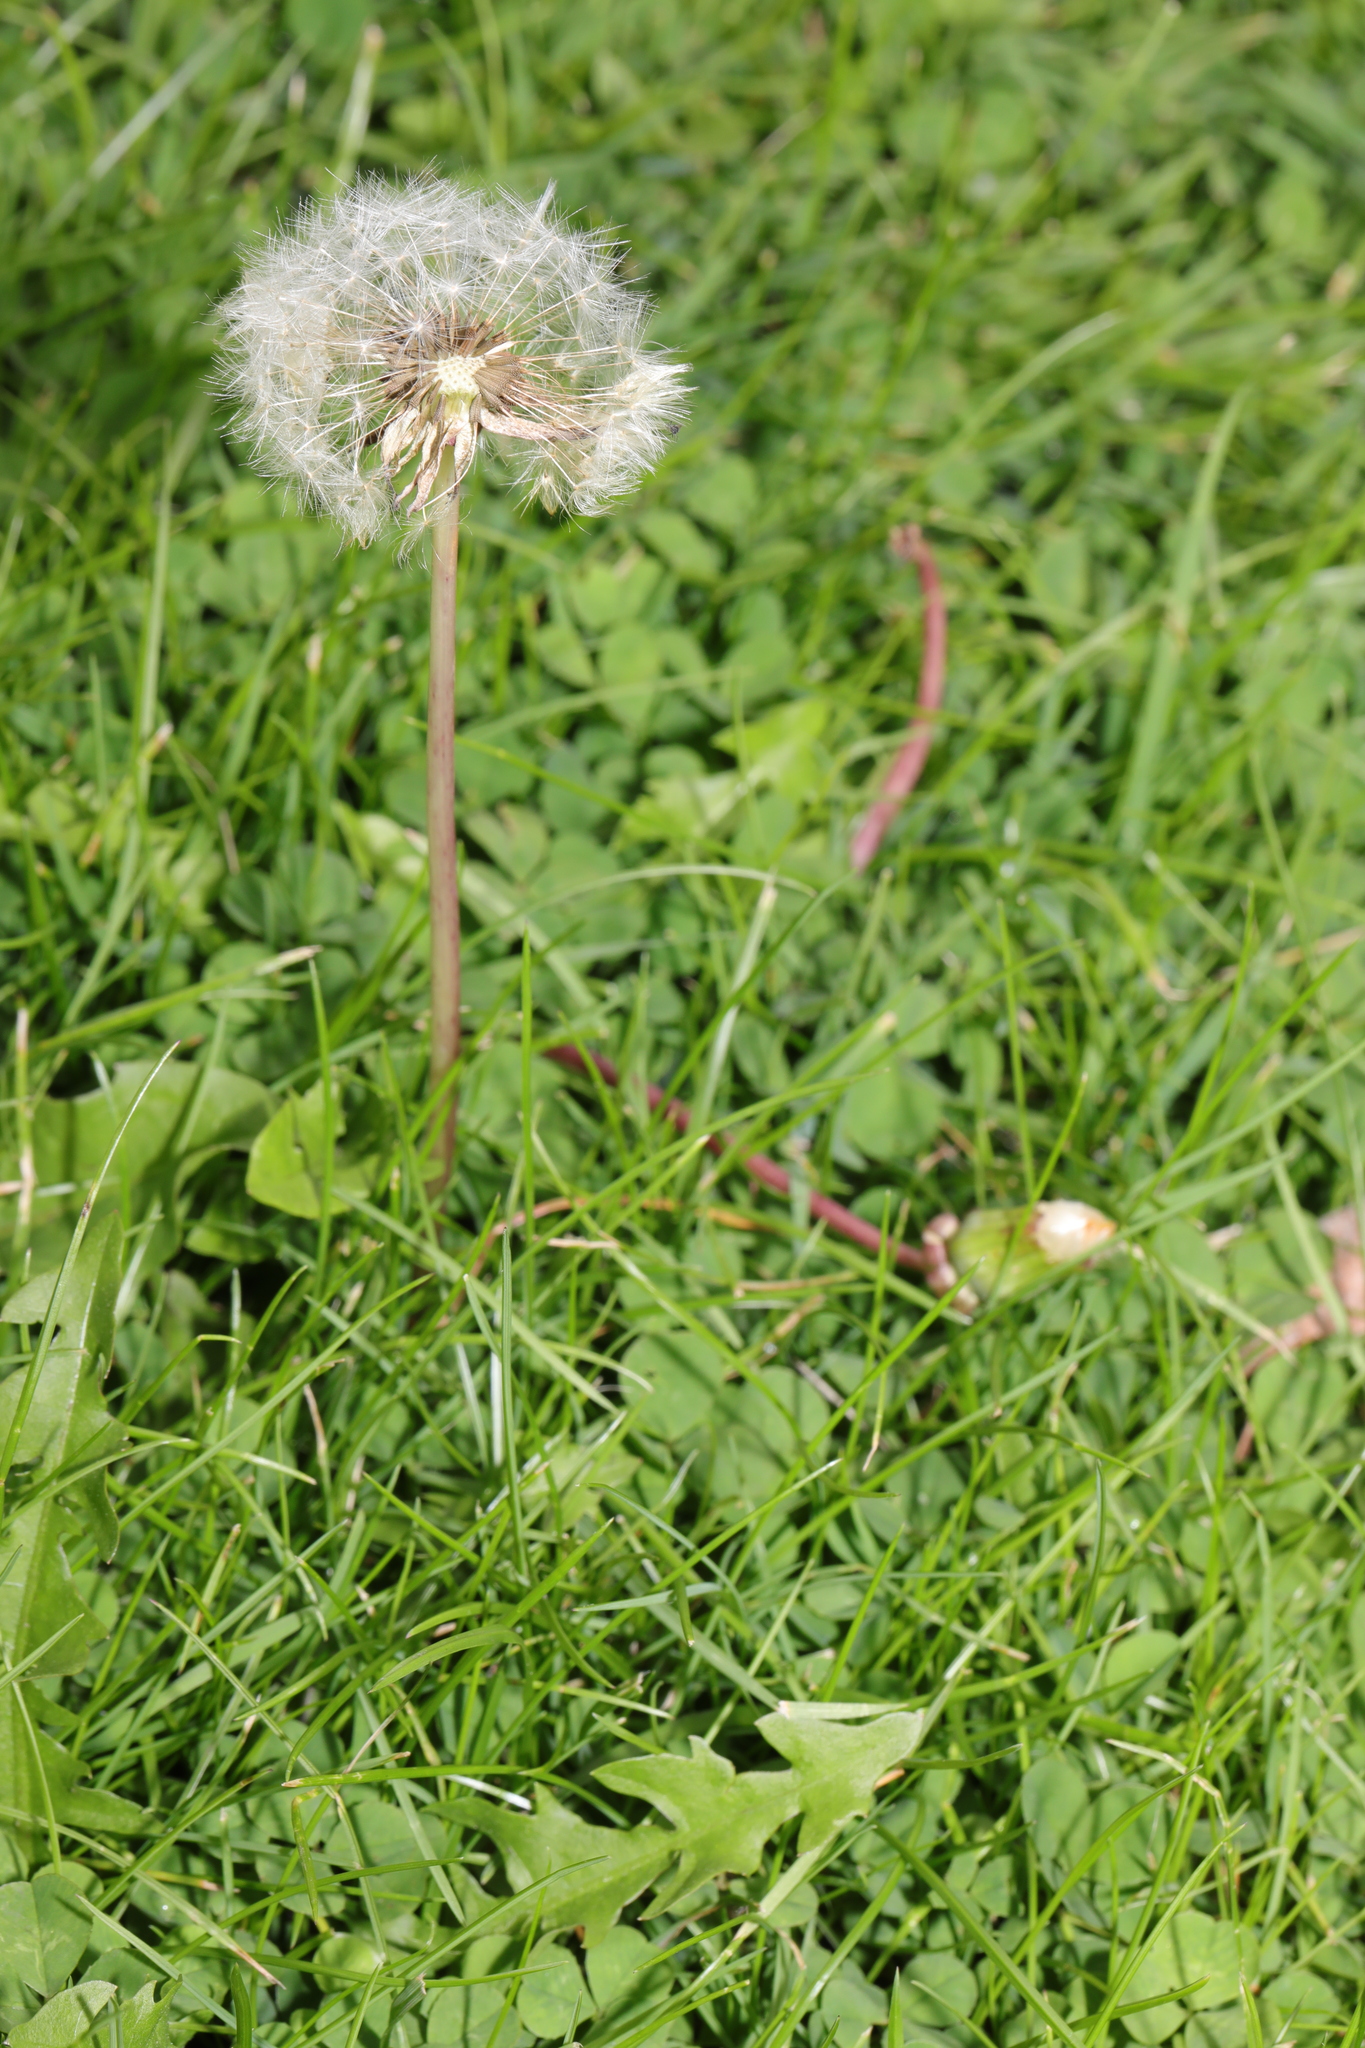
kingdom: Plantae
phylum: Tracheophyta
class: Magnoliopsida
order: Asterales
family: Asteraceae
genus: Taraxacum
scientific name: Taraxacum officinale
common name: Common dandelion
